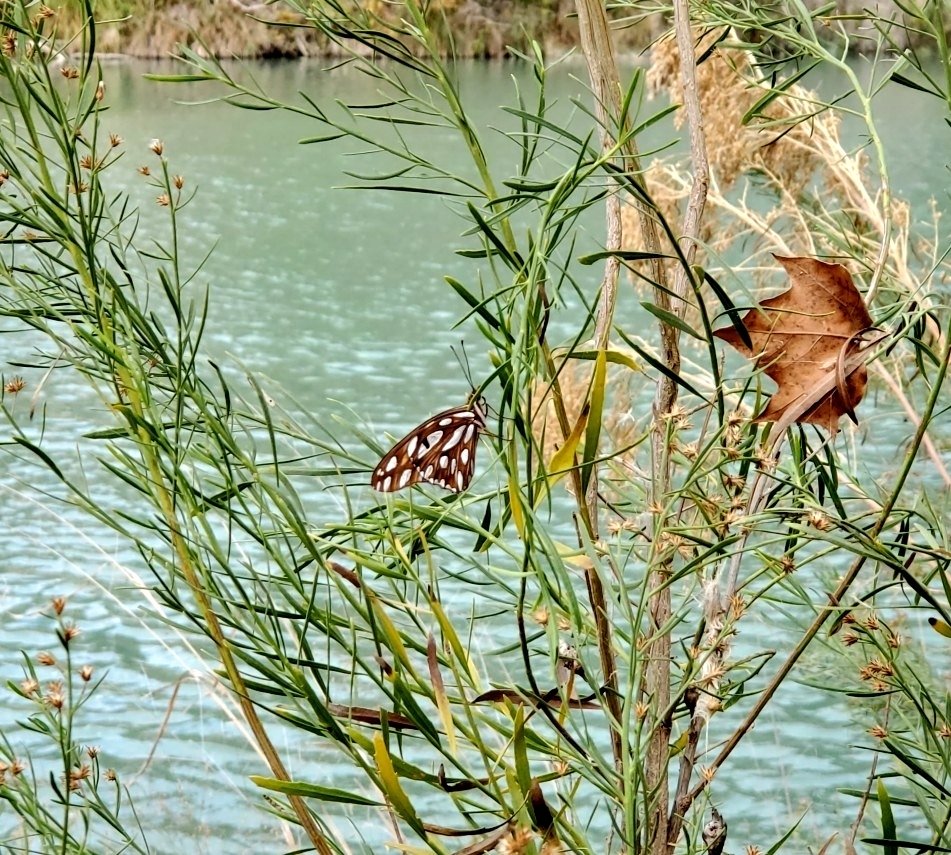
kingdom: Animalia
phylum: Arthropoda
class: Insecta
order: Lepidoptera
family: Nymphalidae
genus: Dione
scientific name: Dione vanillae
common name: Gulf fritillary
